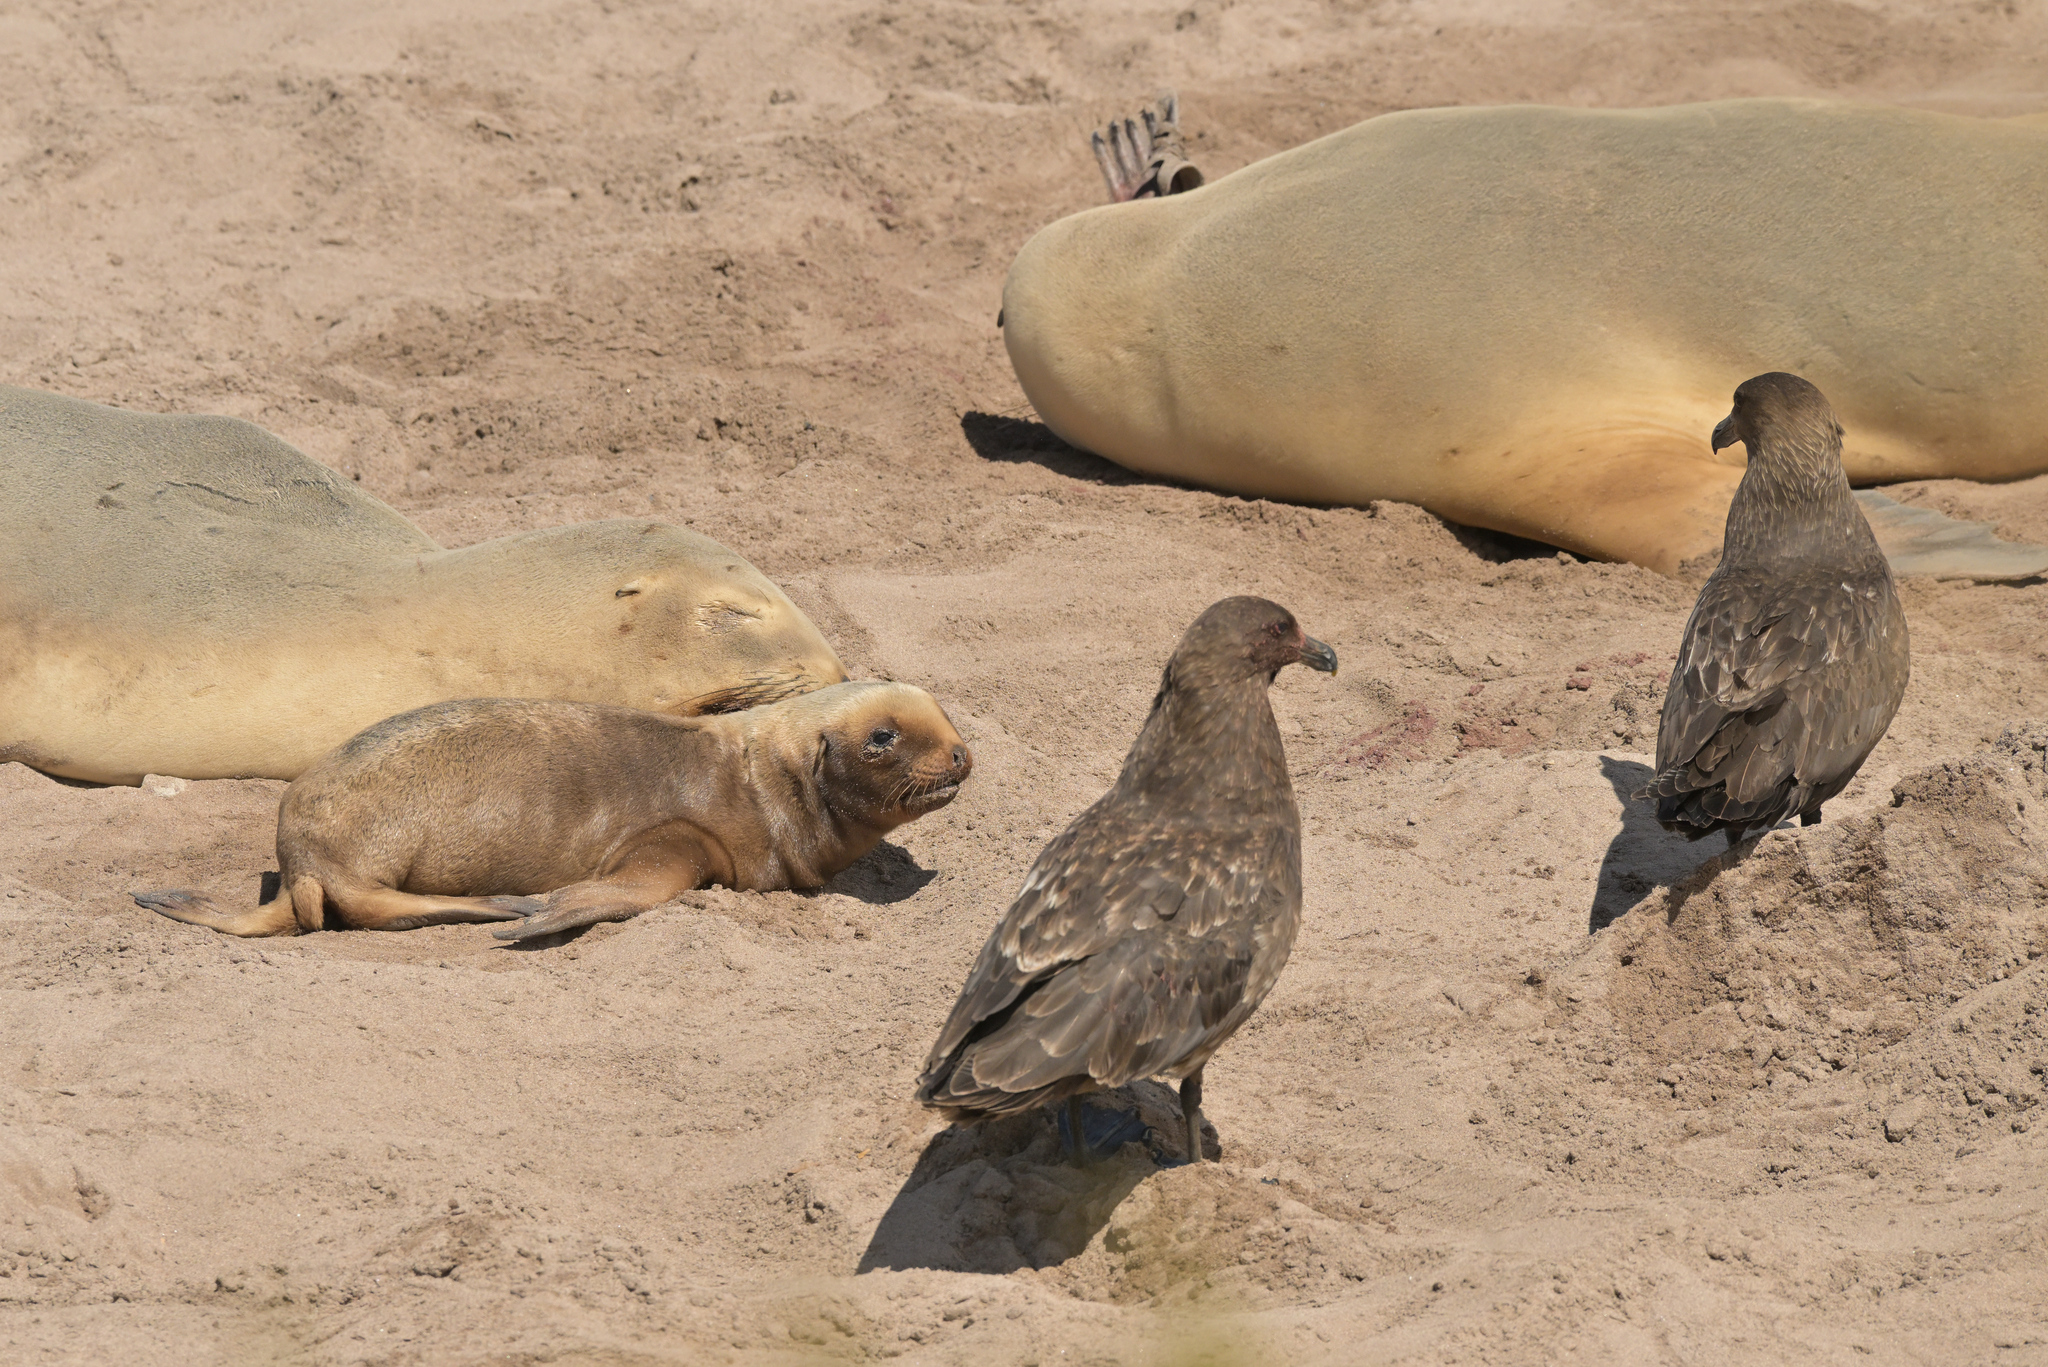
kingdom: Animalia
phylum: Chordata
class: Mammalia
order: Carnivora
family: Otariidae
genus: Phocarctos
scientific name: Phocarctos hookeri
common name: New zealand sea lion
